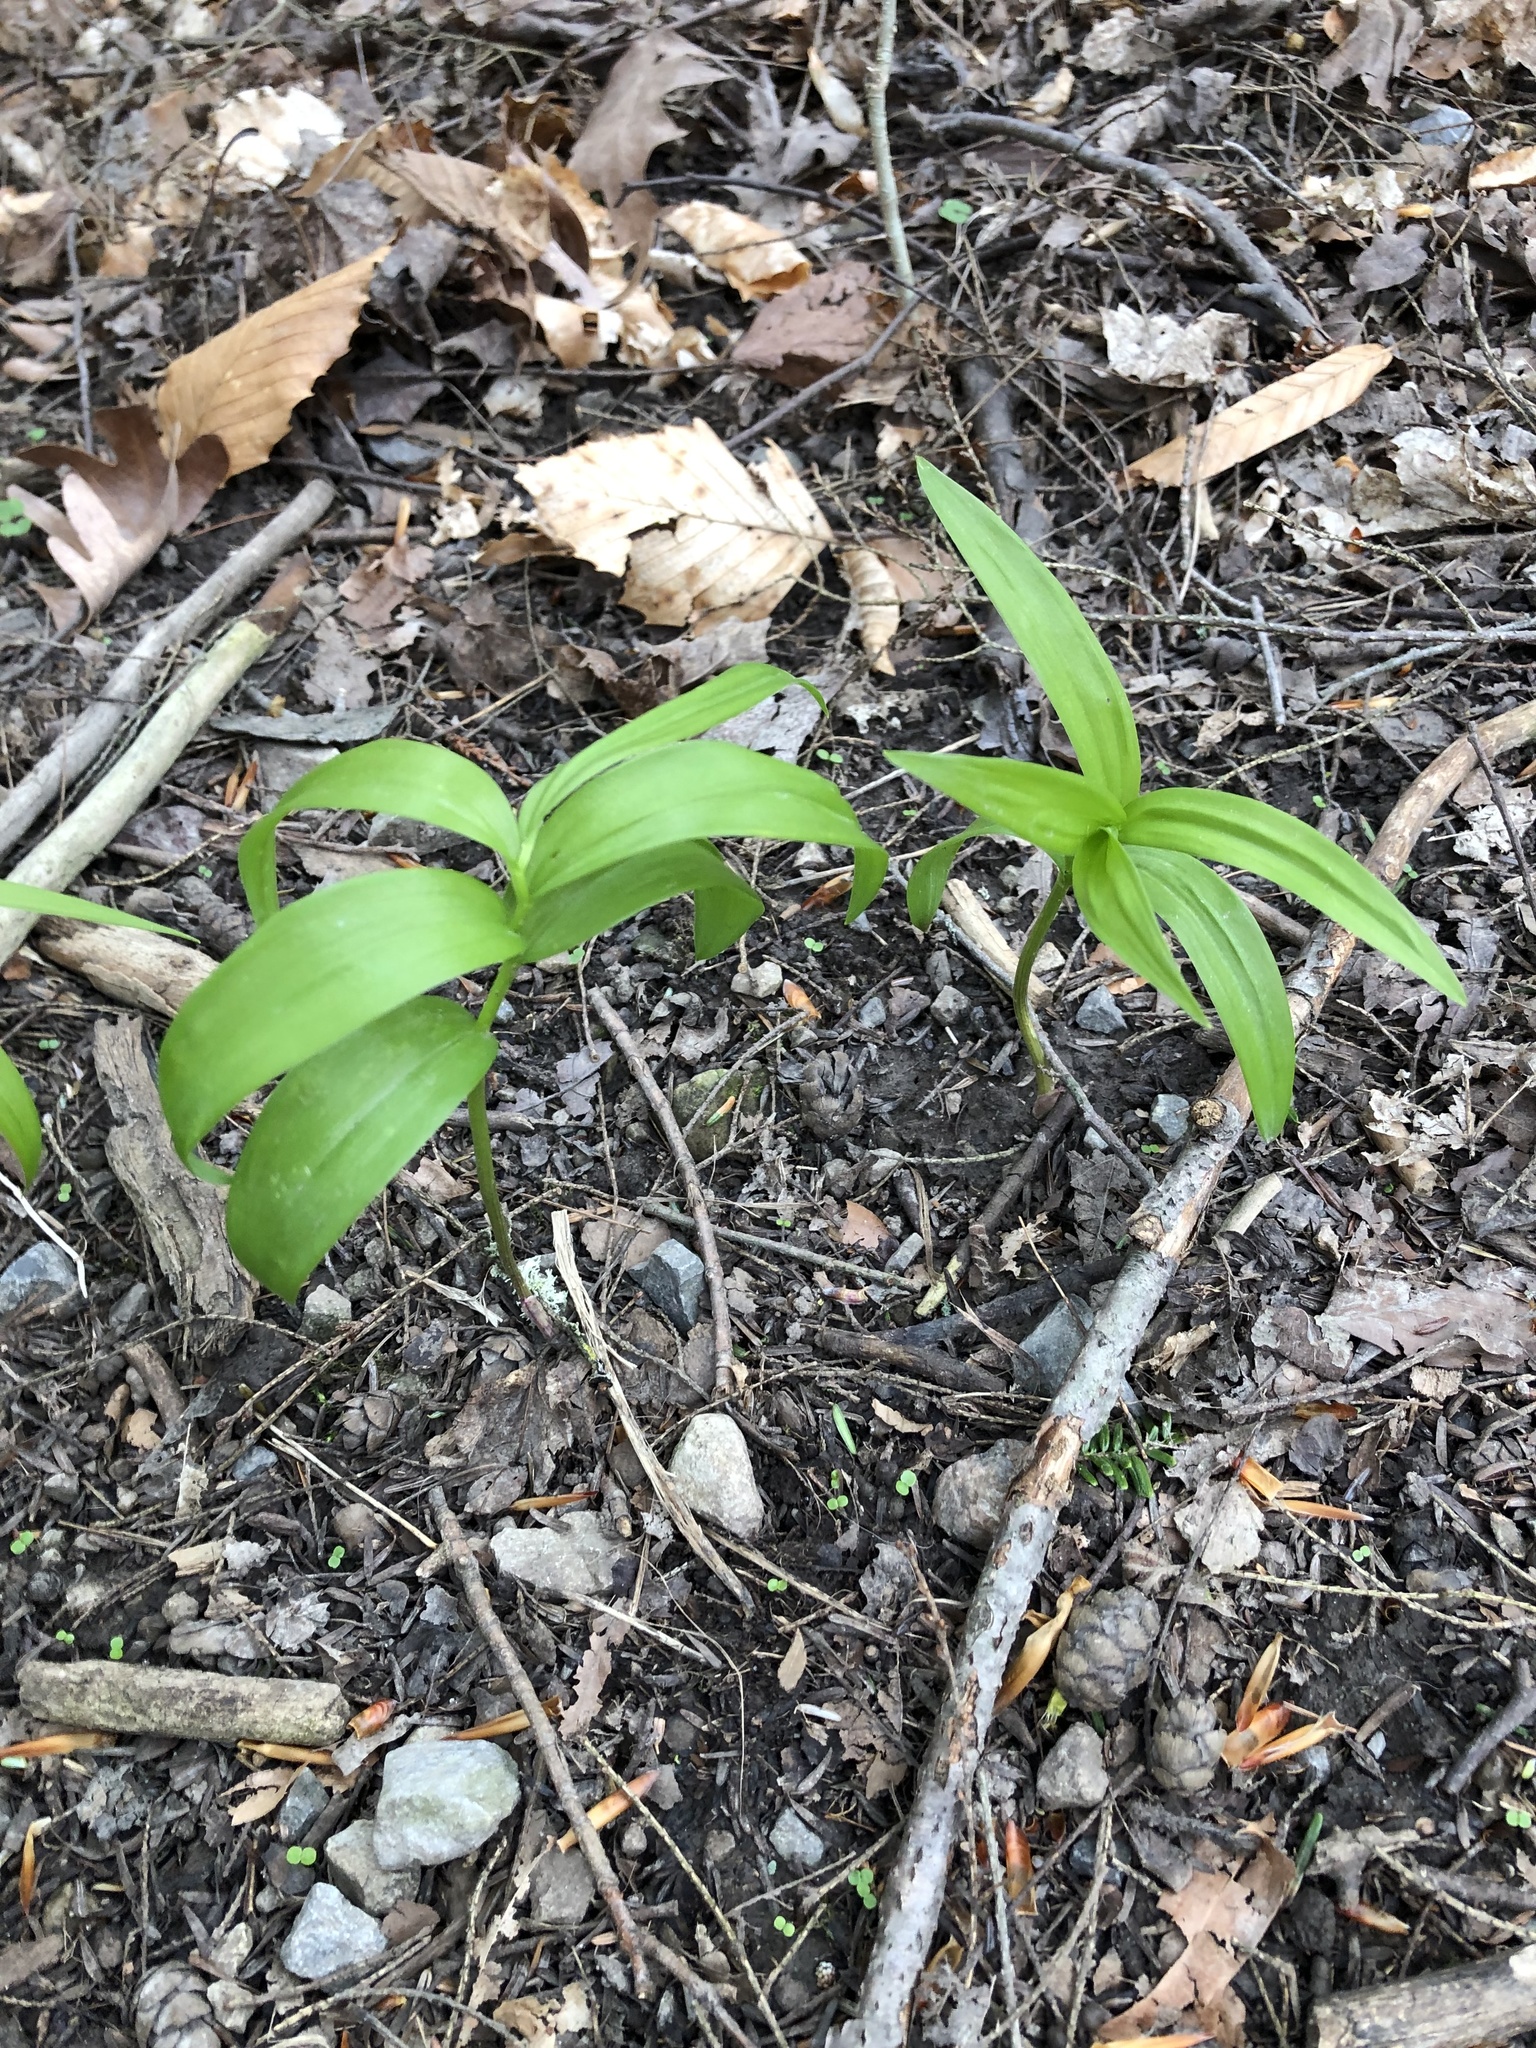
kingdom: Plantae
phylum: Tracheophyta
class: Liliopsida
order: Asparagales
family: Asparagaceae
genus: Maianthemum
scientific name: Maianthemum stellatum
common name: Little false solomon's seal
